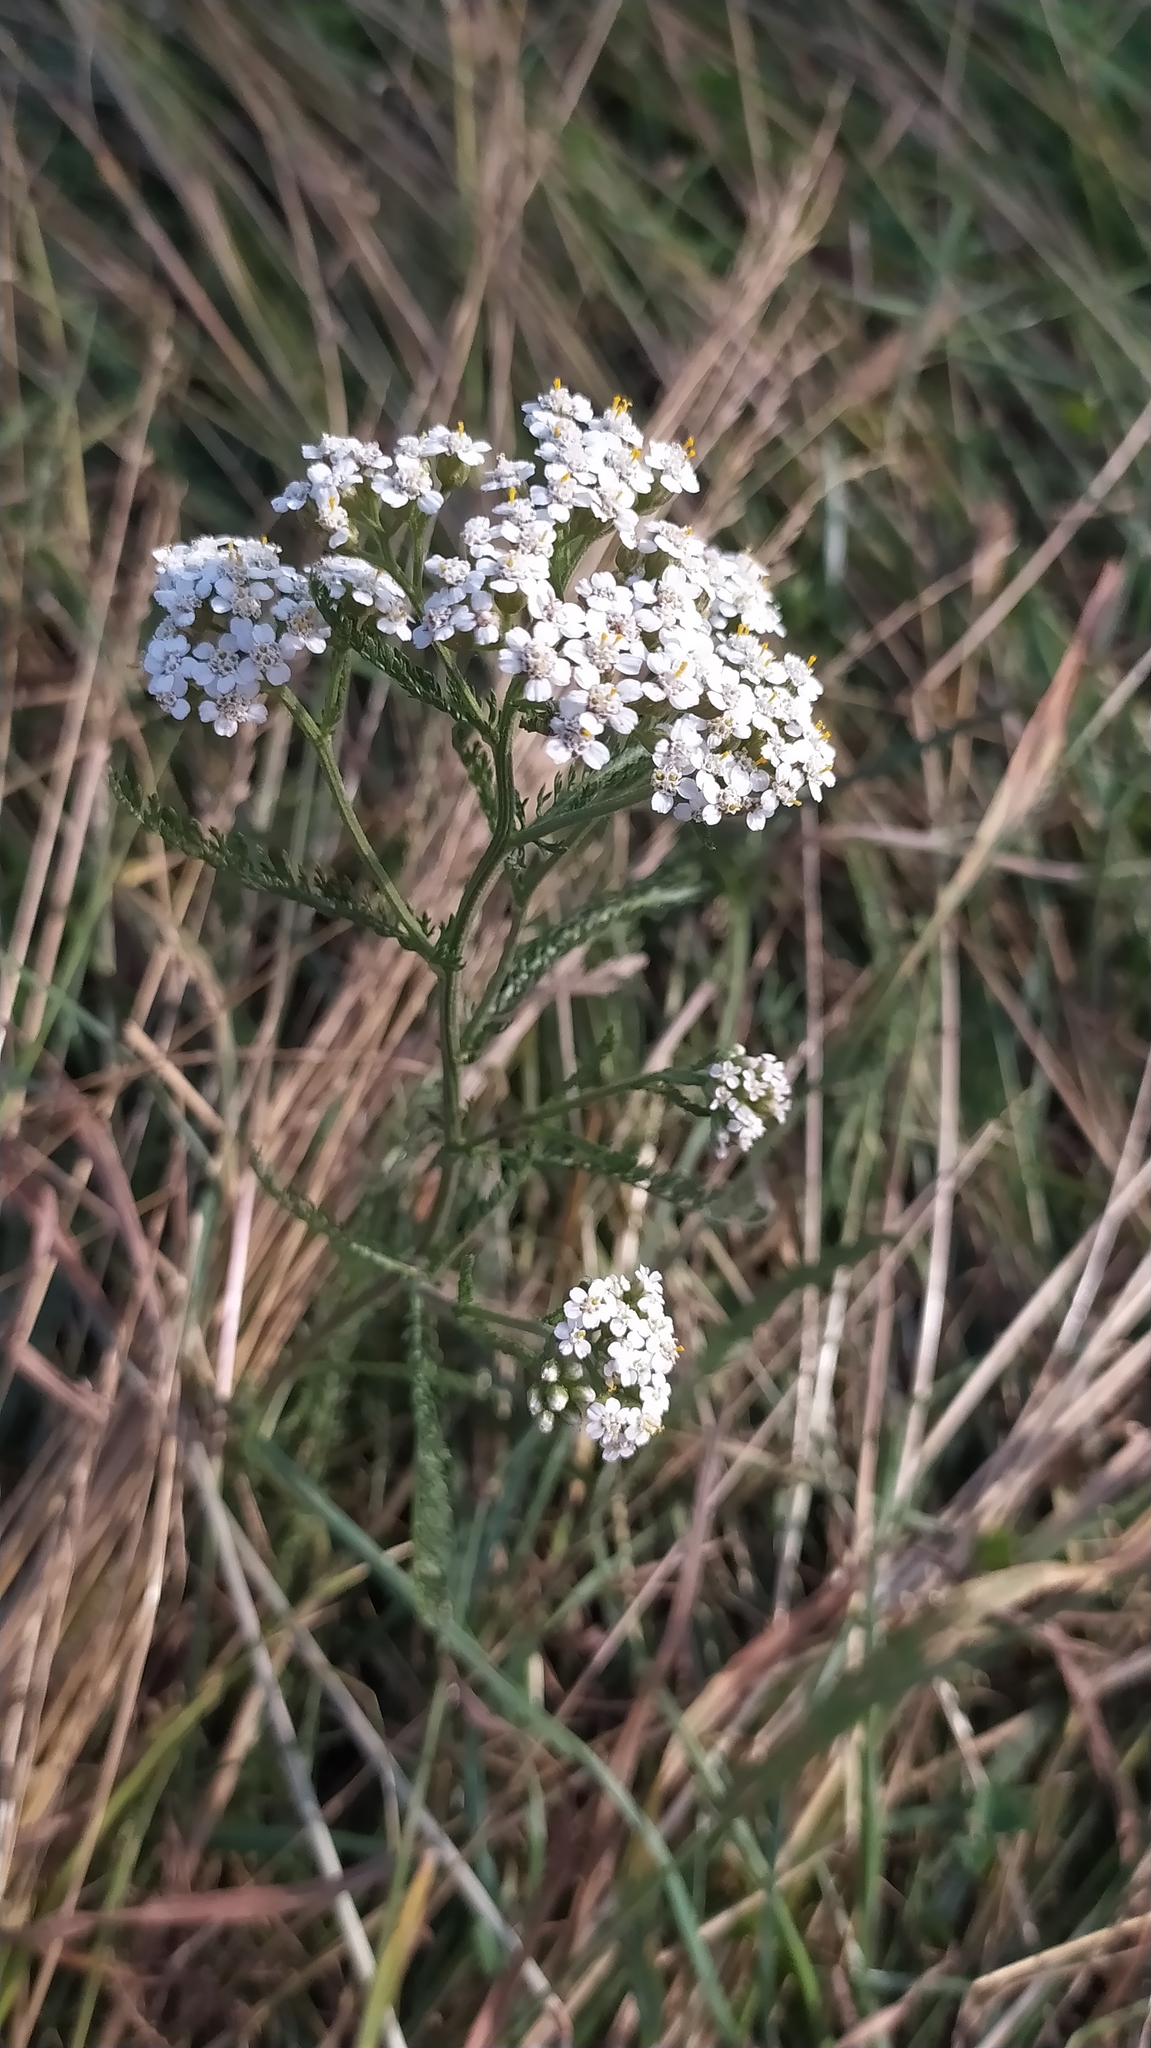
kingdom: Plantae
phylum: Tracheophyta
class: Magnoliopsida
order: Asterales
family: Asteraceae
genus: Achillea
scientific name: Achillea millefolium
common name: Yarrow
